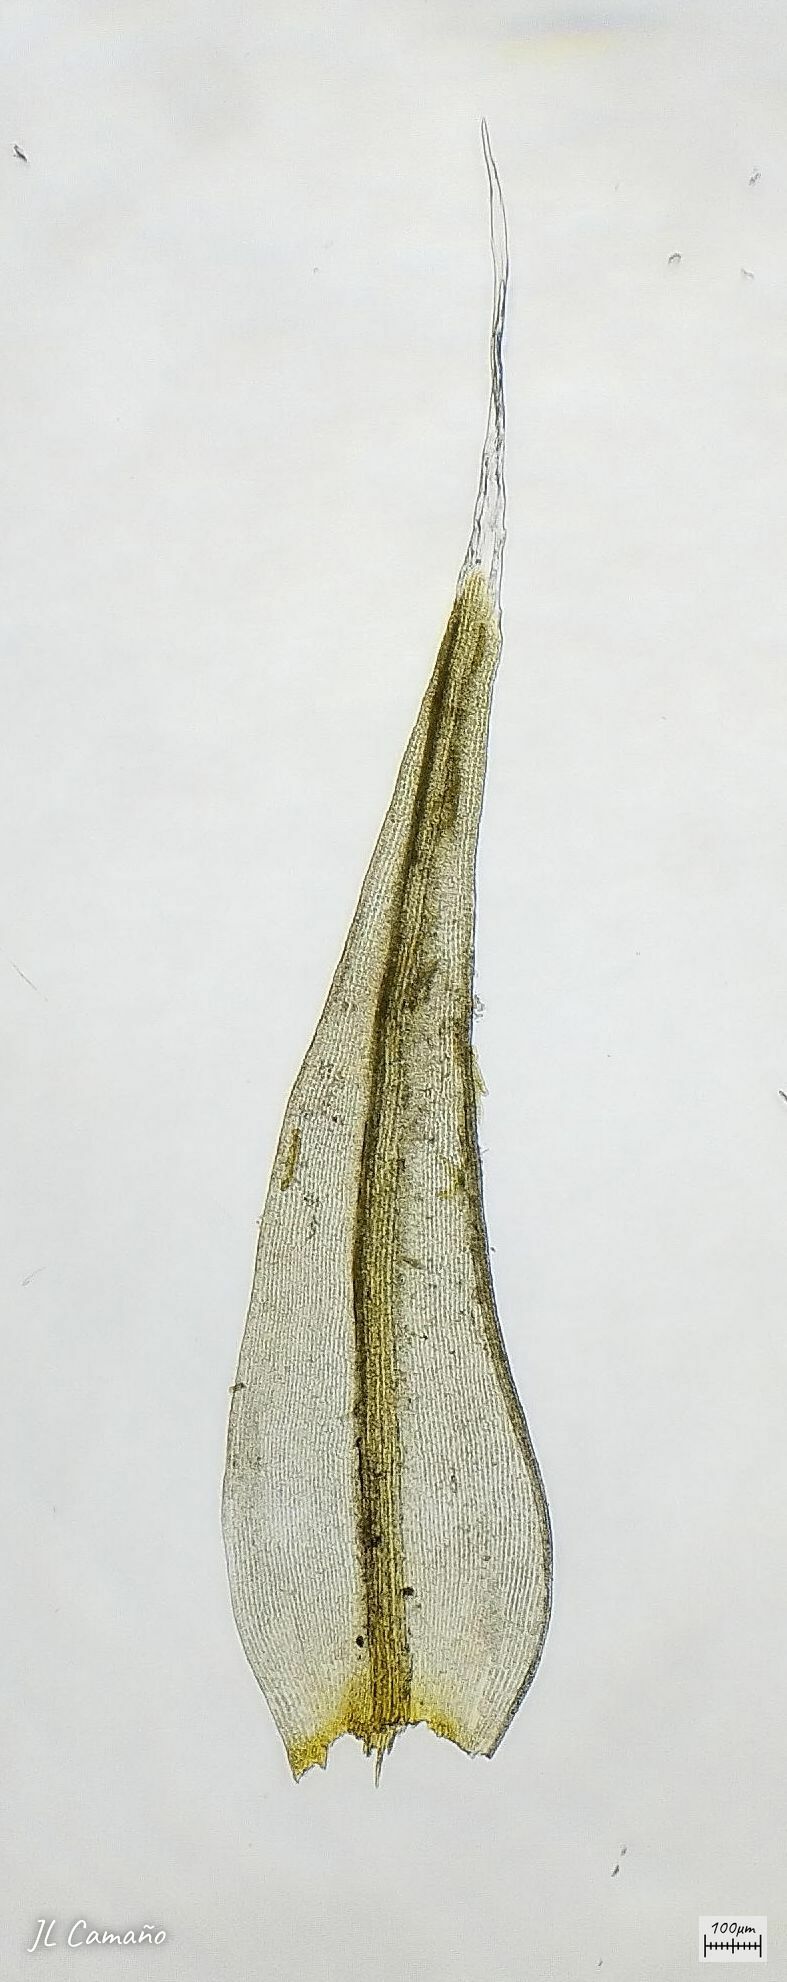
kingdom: Plantae
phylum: Bryophyta
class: Bryopsida
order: Grimmiales
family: Grimmiaceae
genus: Bucklandiella
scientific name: Bucklandiella heterosticha
